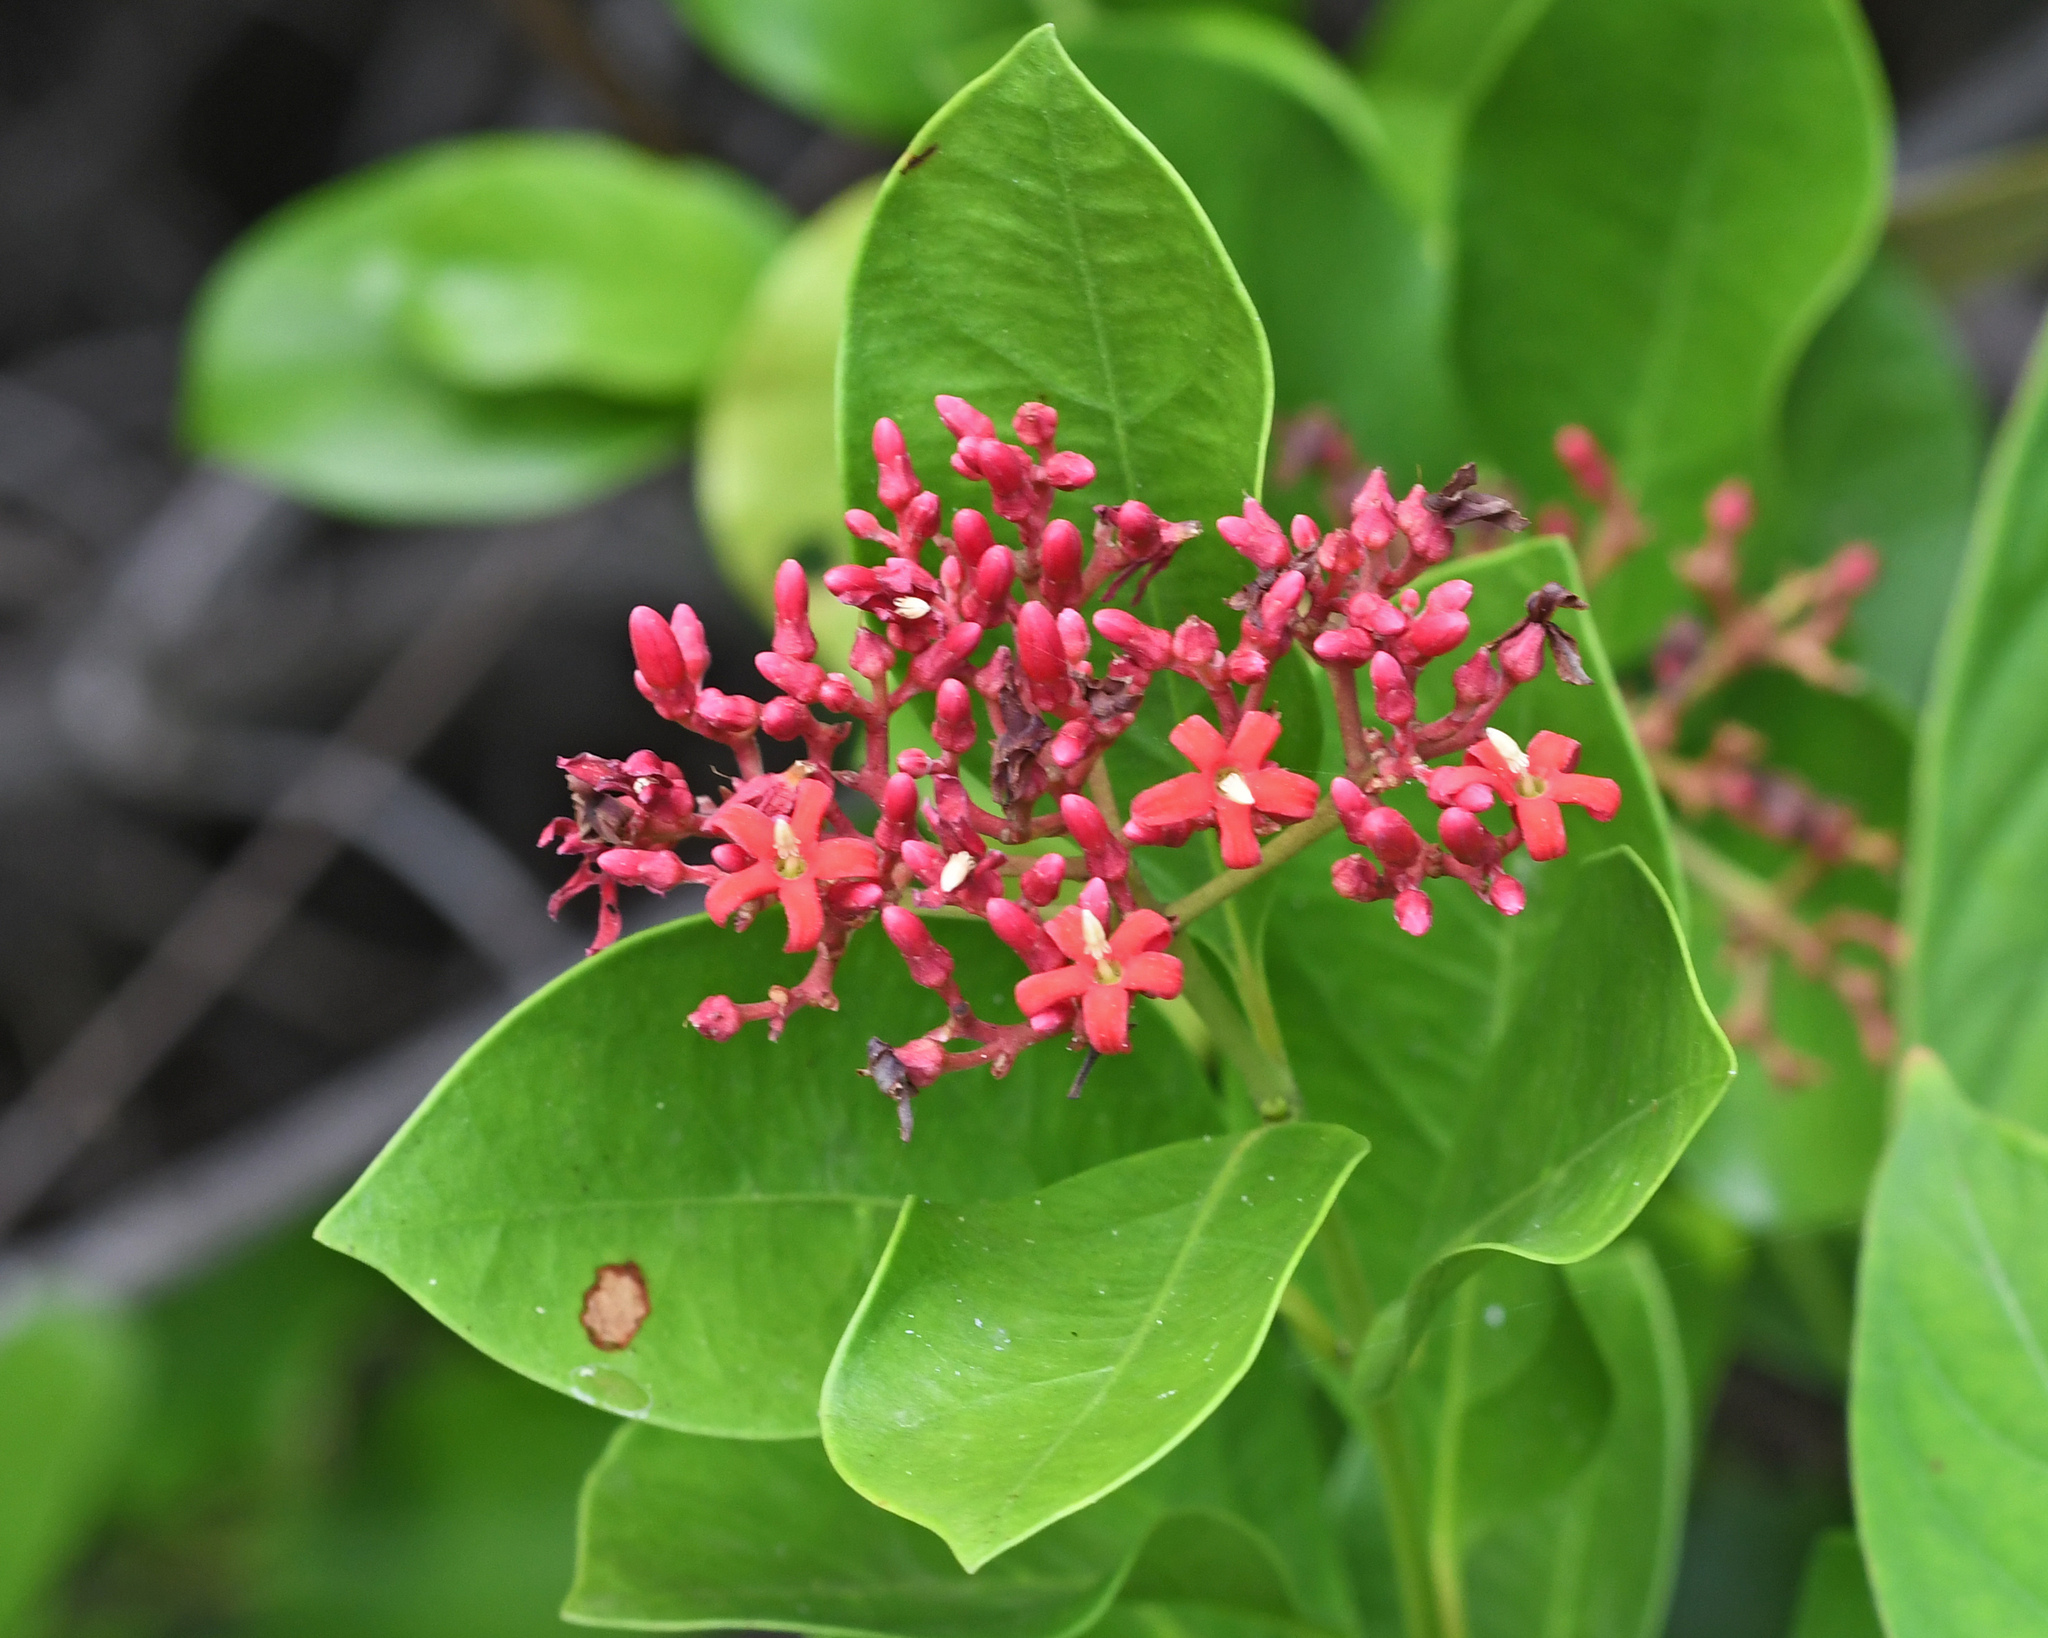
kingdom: Plantae
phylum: Tracheophyta
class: Magnoliopsida
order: Gentianales
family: Apocynaceae
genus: Pinochia
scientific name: Pinochia corymbosa
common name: Sanjuanera
